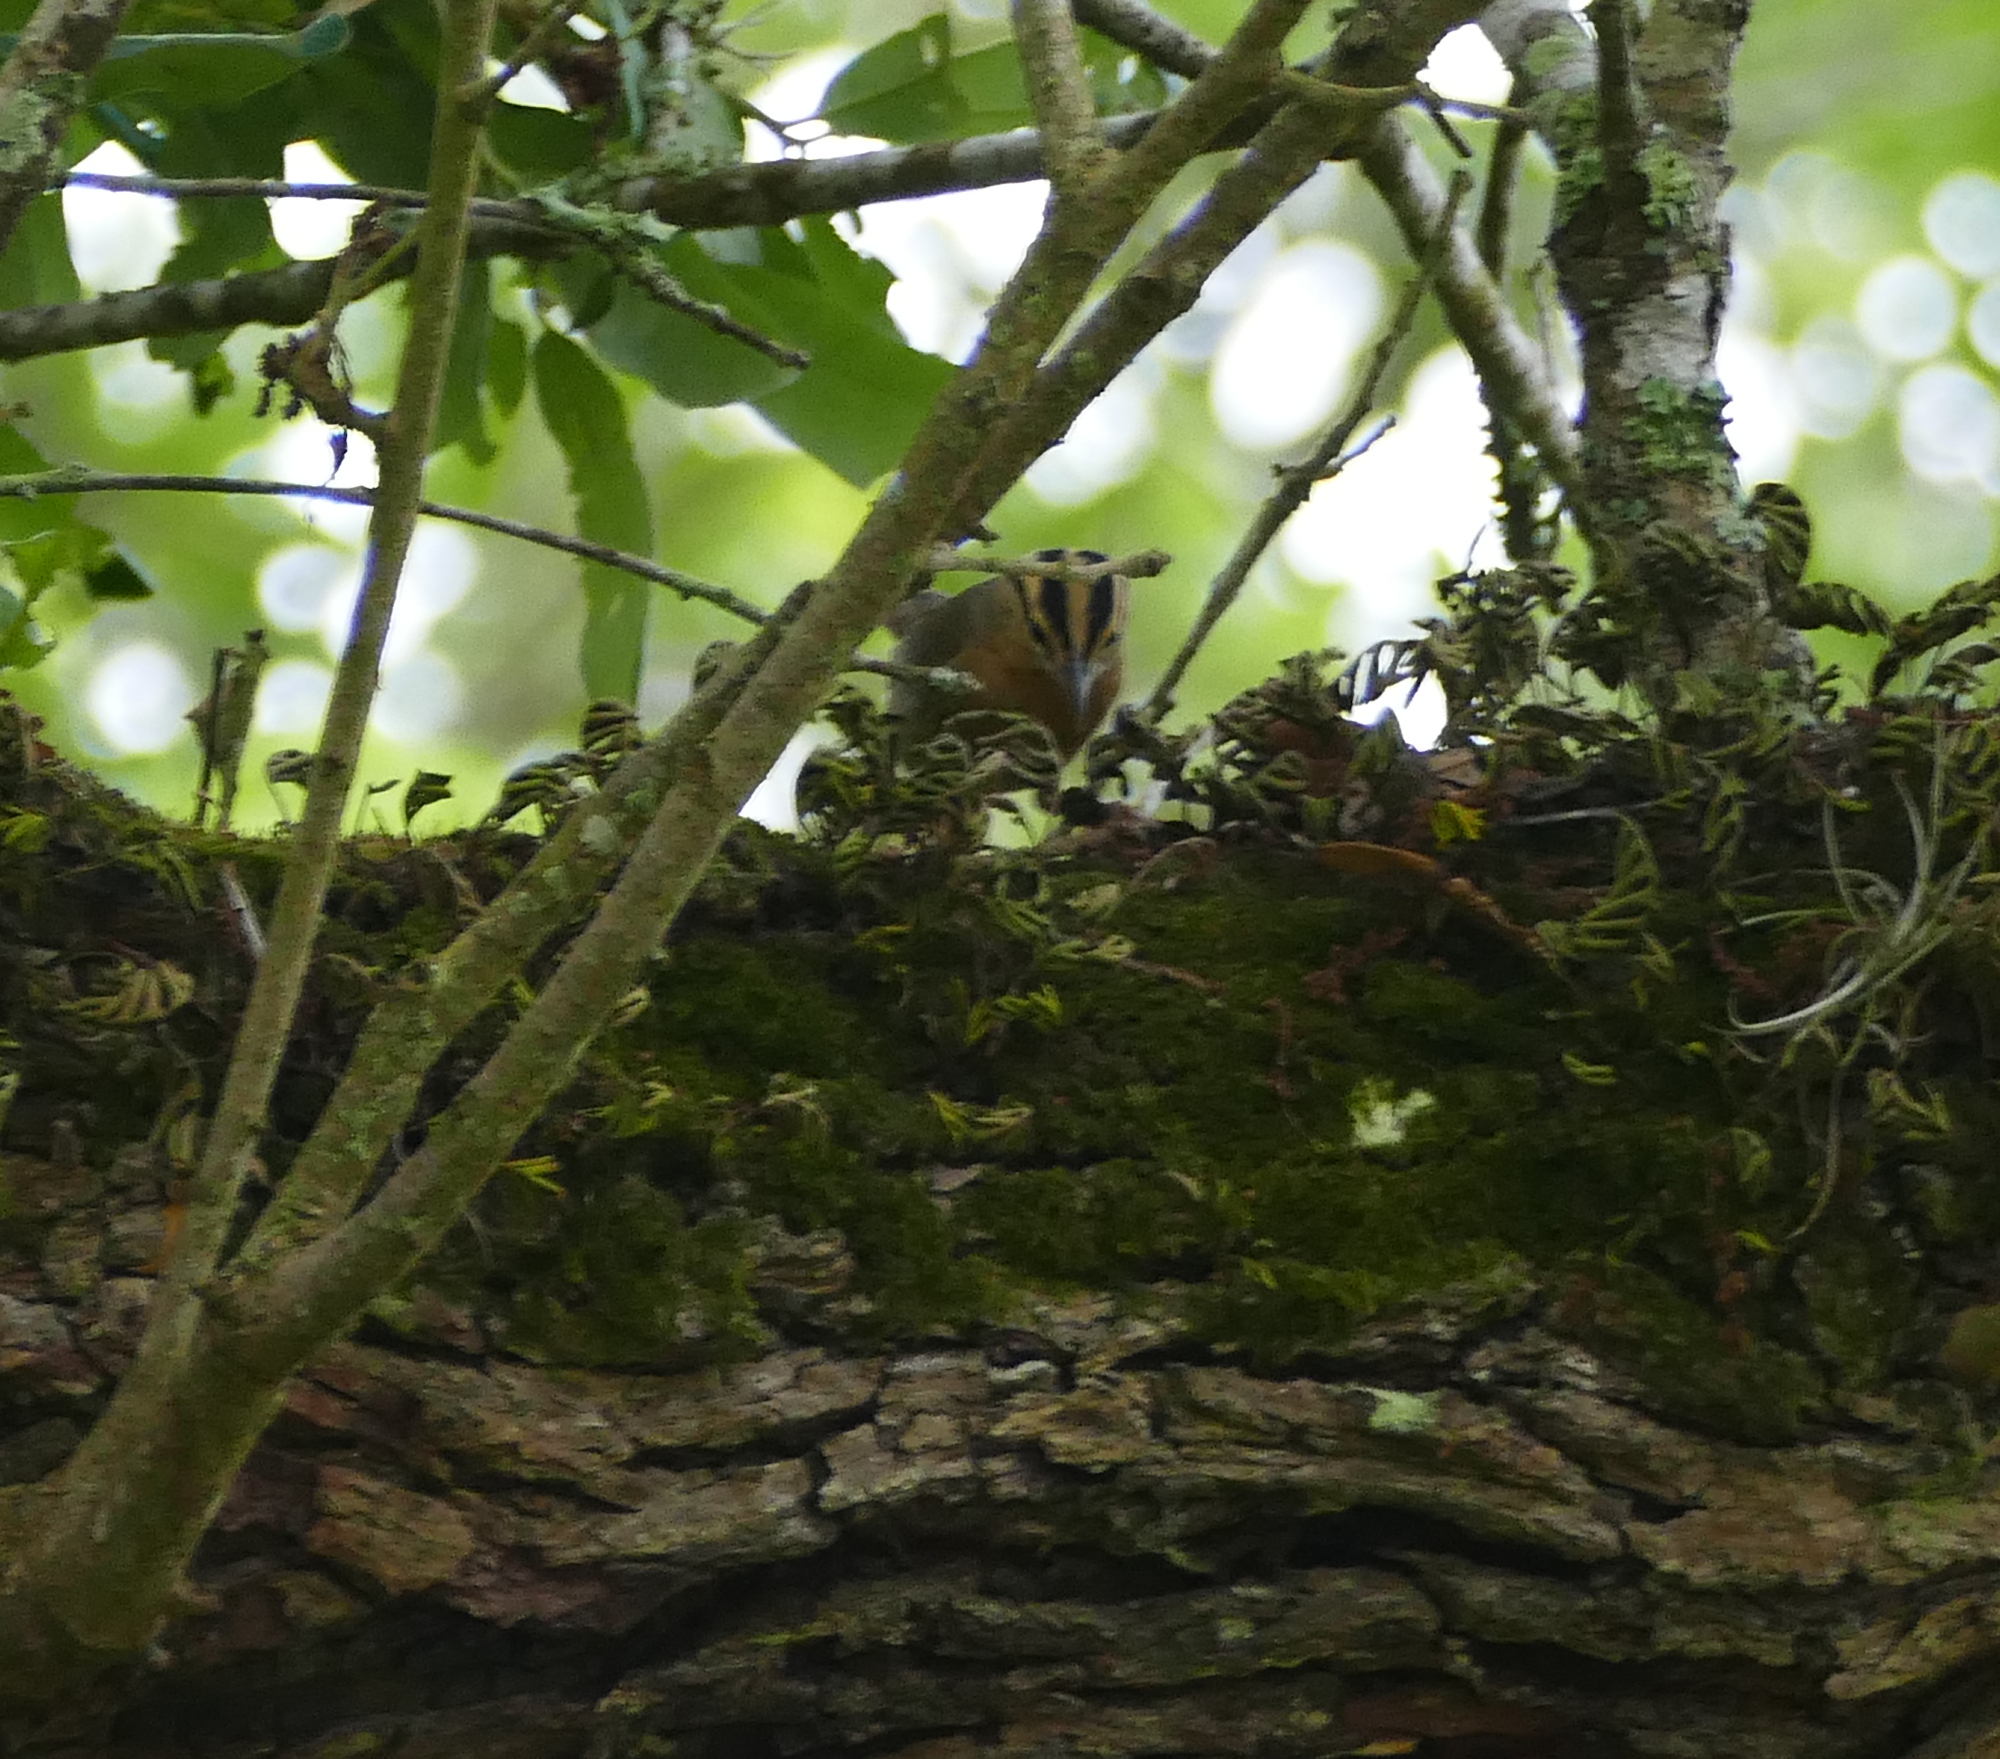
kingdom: Animalia
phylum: Chordata
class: Aves
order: Passeriformes
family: Parulidae
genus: Helmitheros
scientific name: Helmitheros vermivorum
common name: Worm-eating warbler
